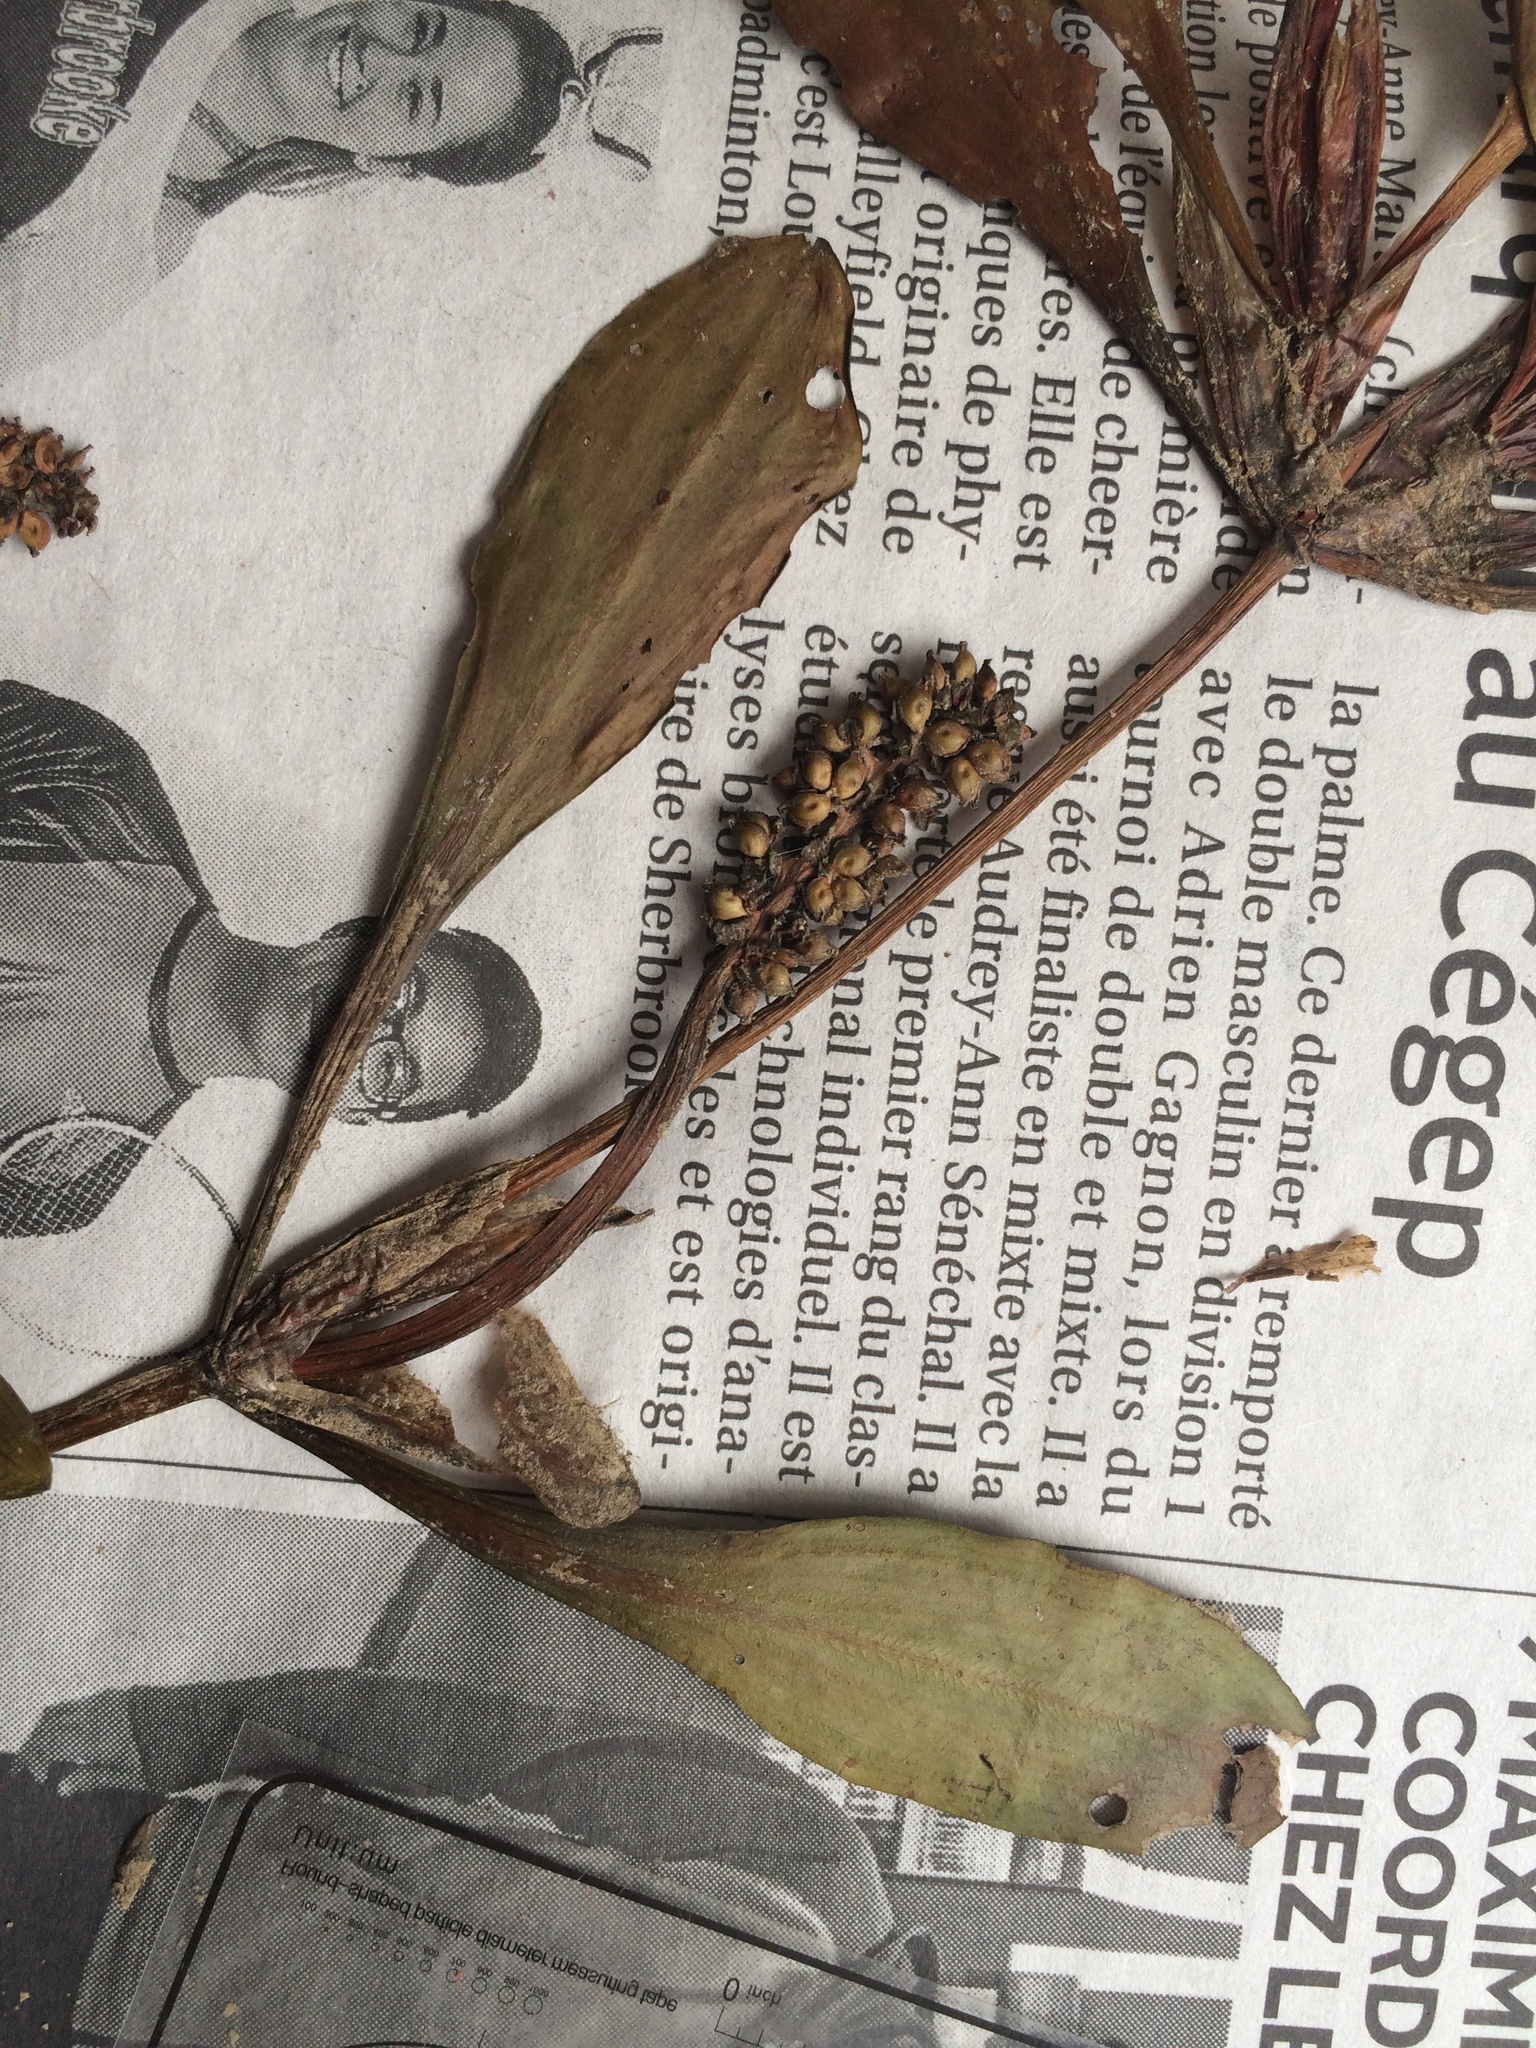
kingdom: Plantae
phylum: Tracheophyta
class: Liliopsida
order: Alismatales
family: Potamogetonaceae
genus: Potamogeton
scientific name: Potamogeton alpinus
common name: Red pondweed
